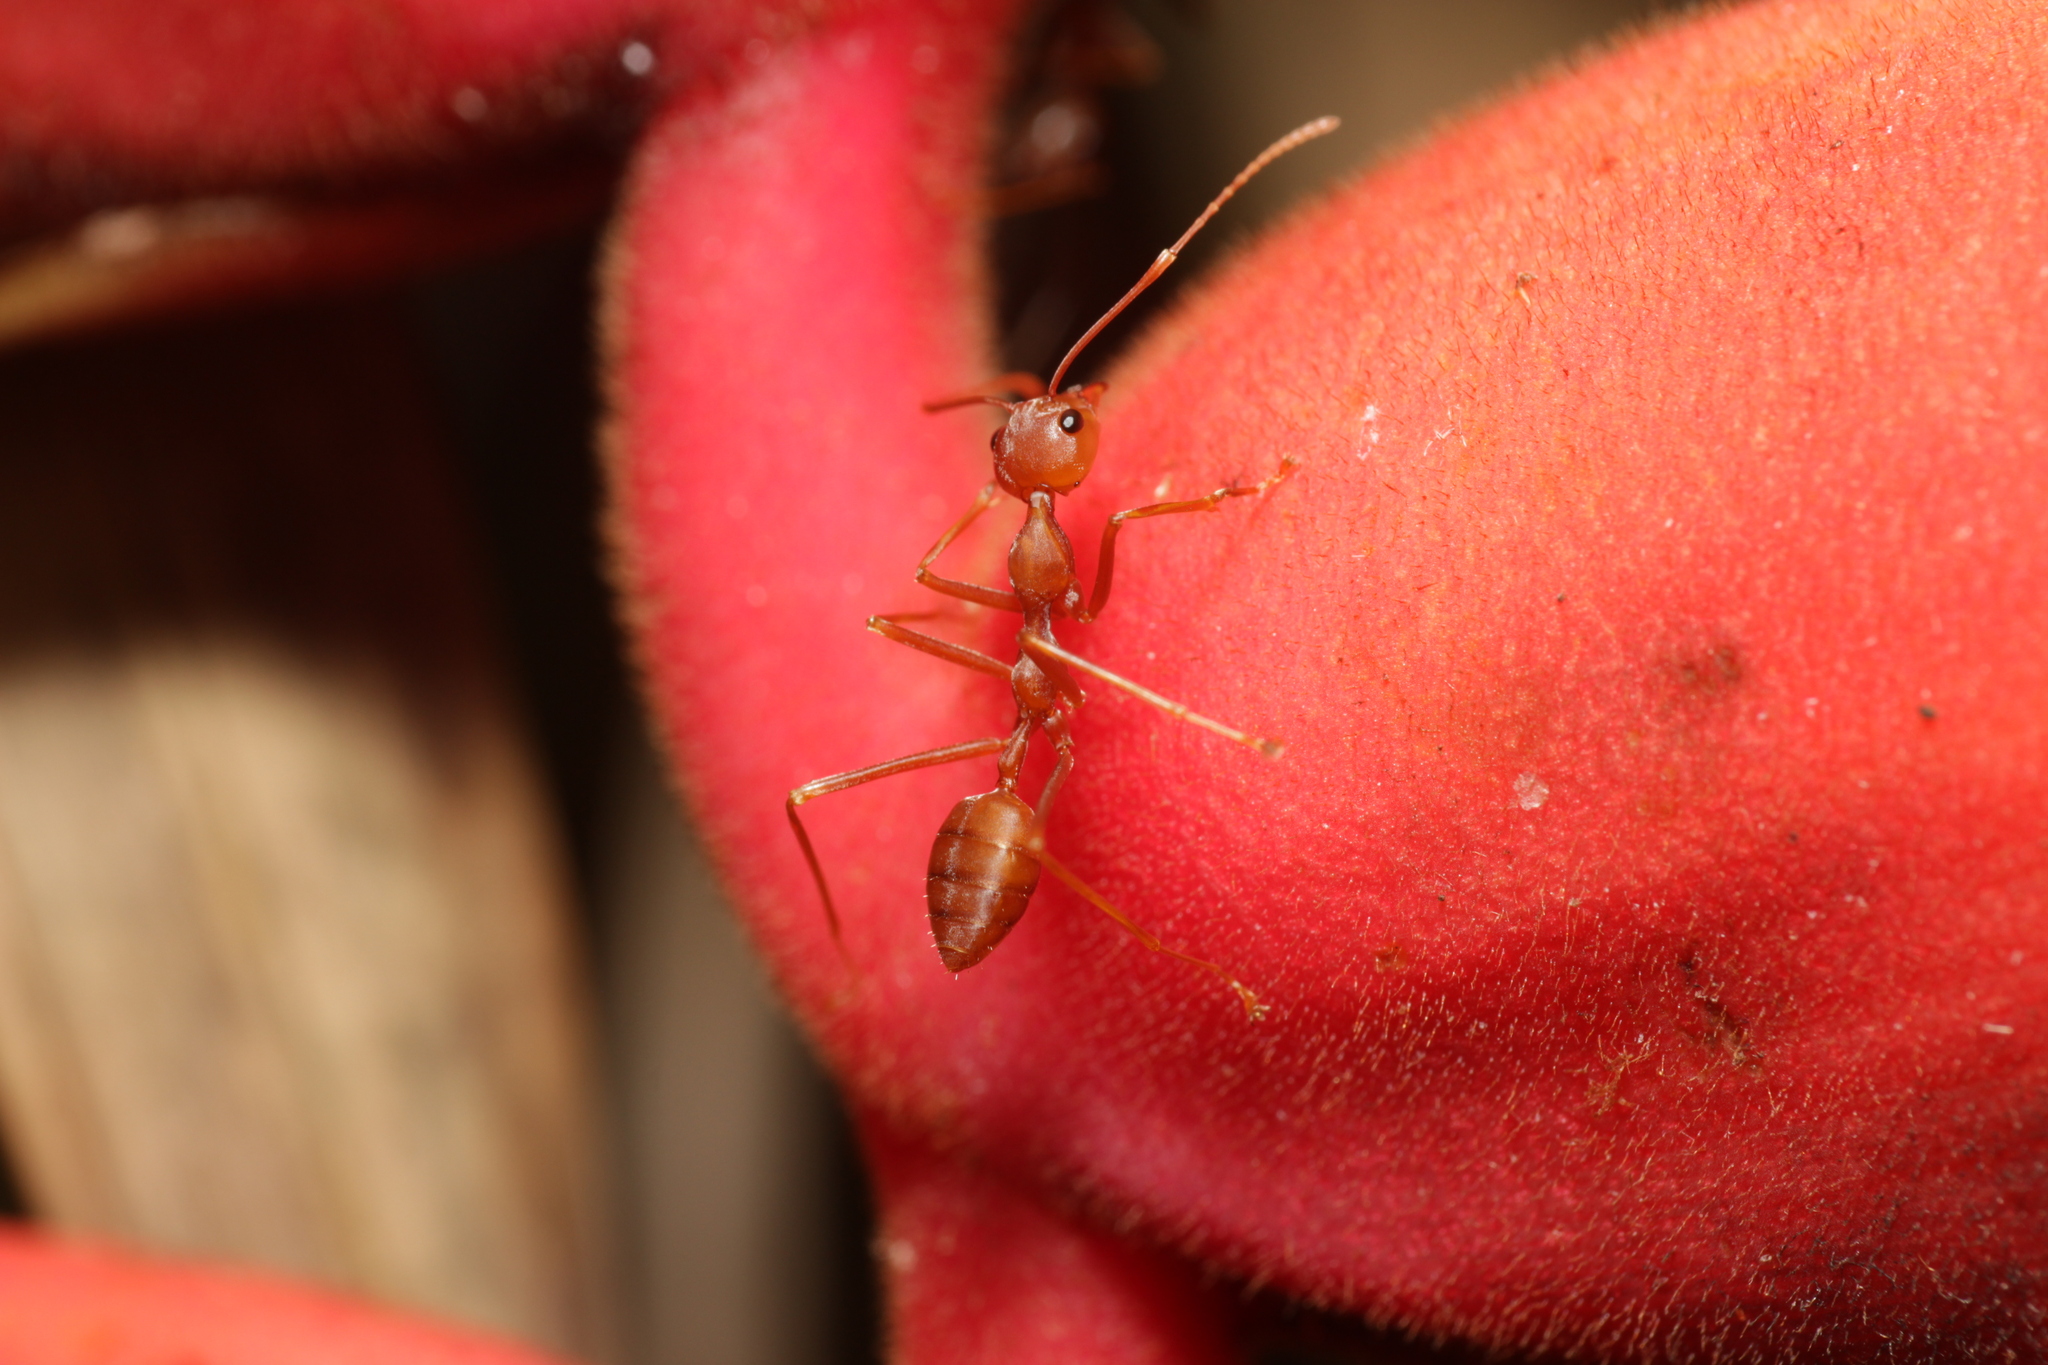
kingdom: Animalia
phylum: Arthropoda
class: Insecta
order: Hymenoptera
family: Formicidae
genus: Oecophylla
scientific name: Oecophylla smaragdina
